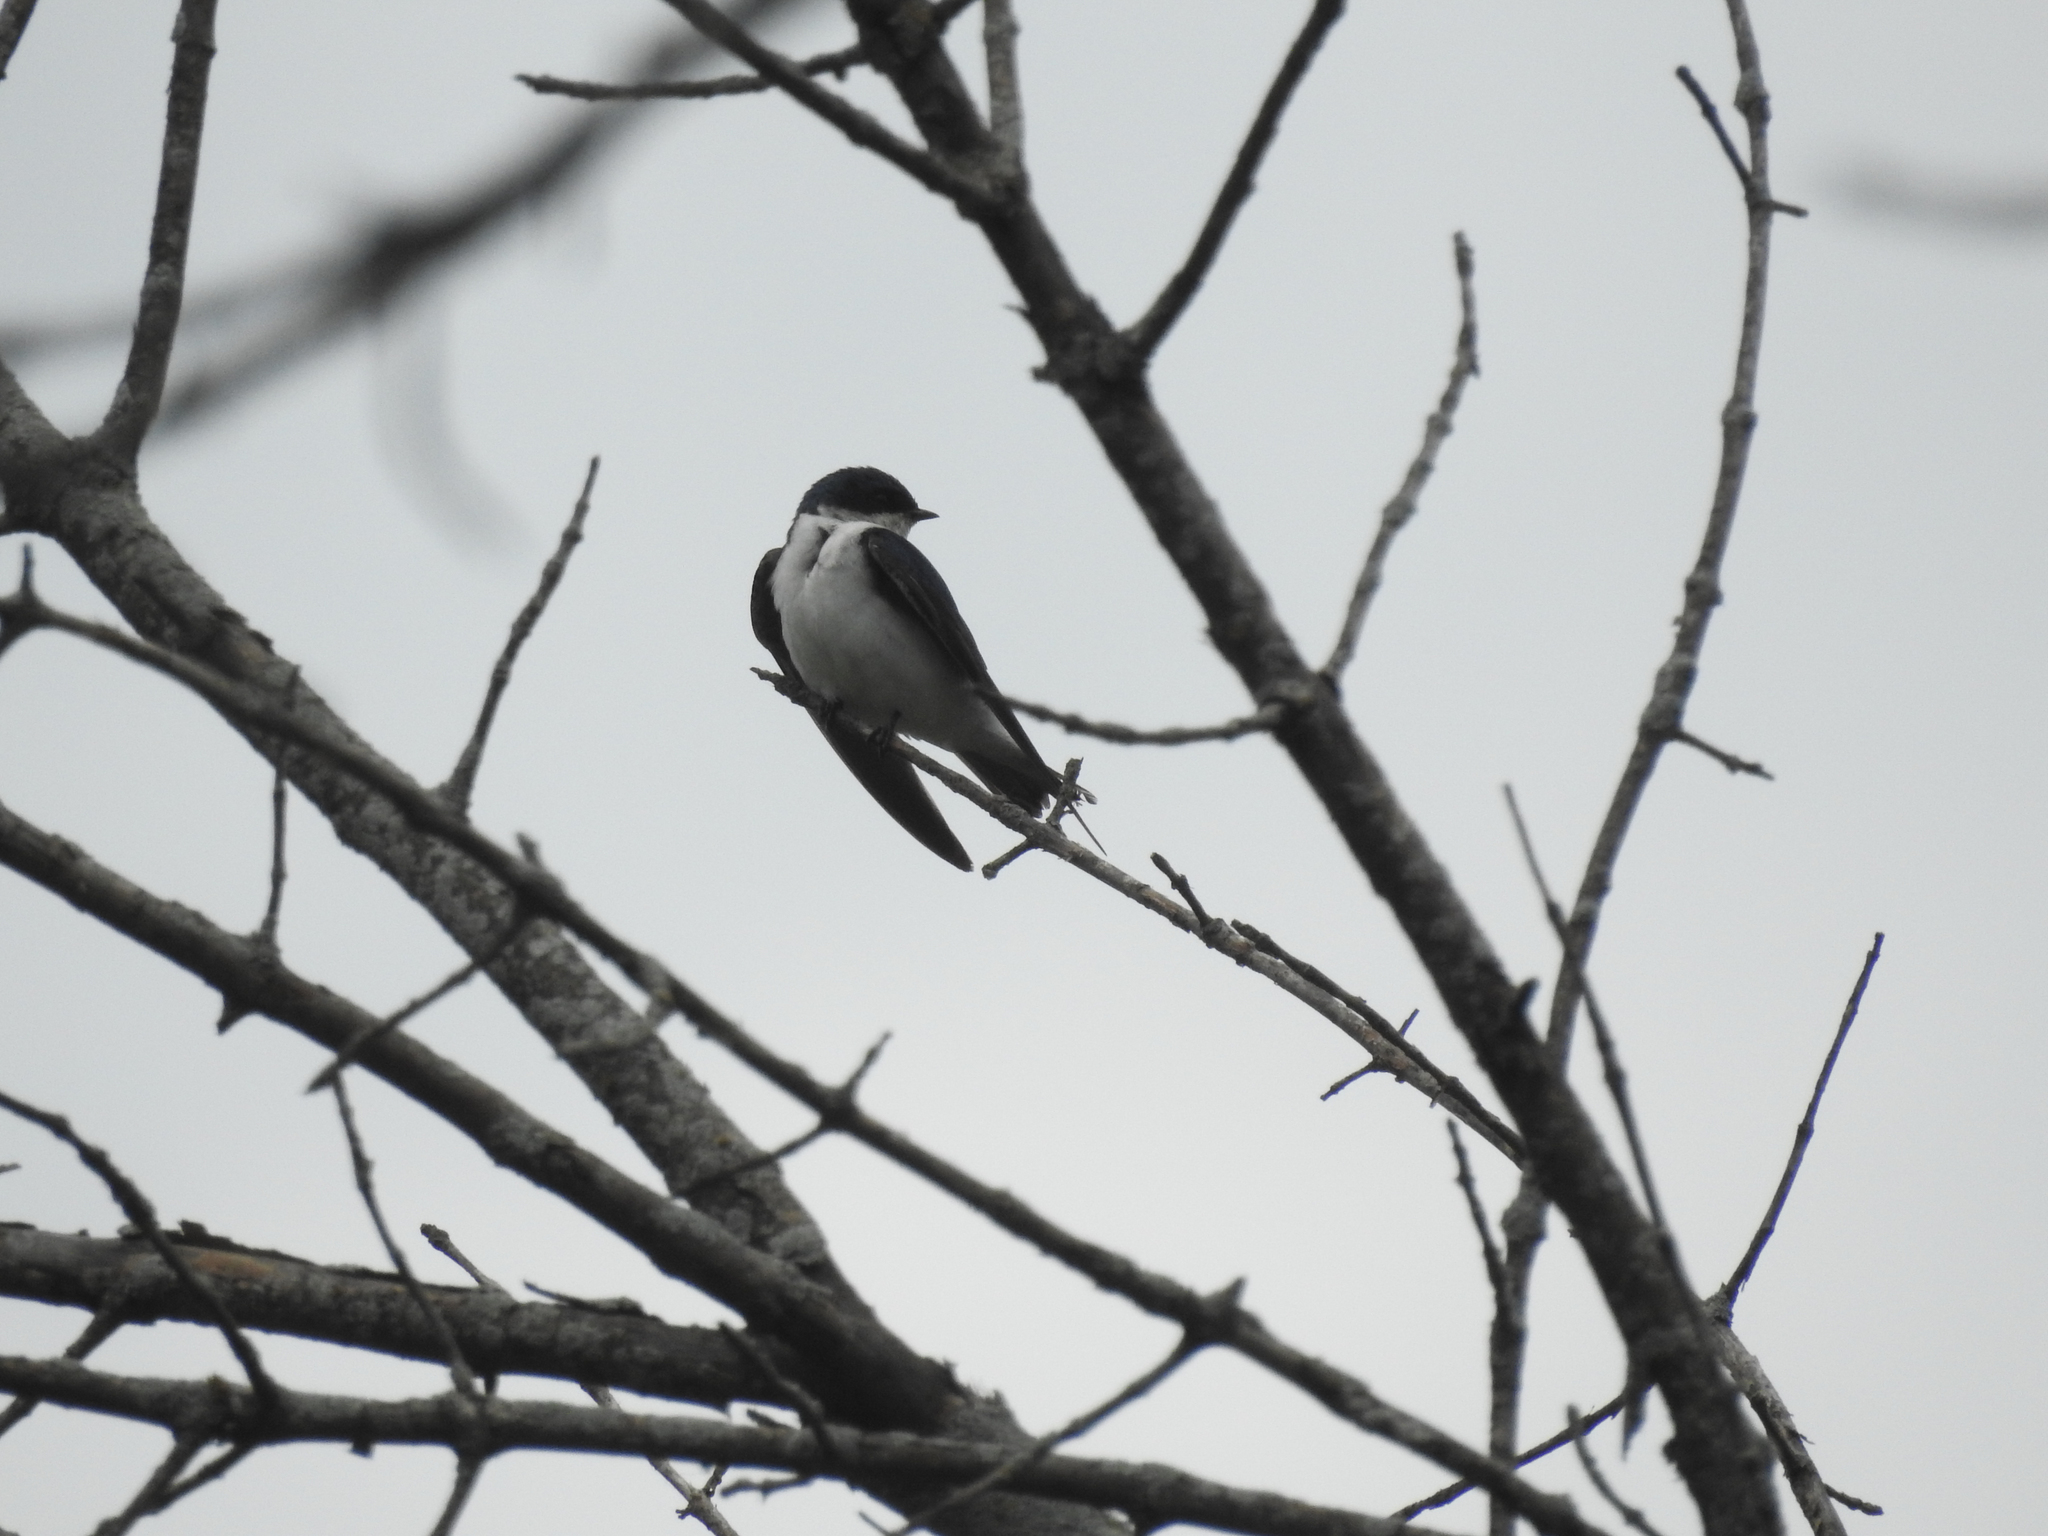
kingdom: Animalia
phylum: Chordata
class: Aves
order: Passeriformes
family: Hirundinidae
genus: Tachycineta
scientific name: Tachycineta bicolor
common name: Tree swallow
